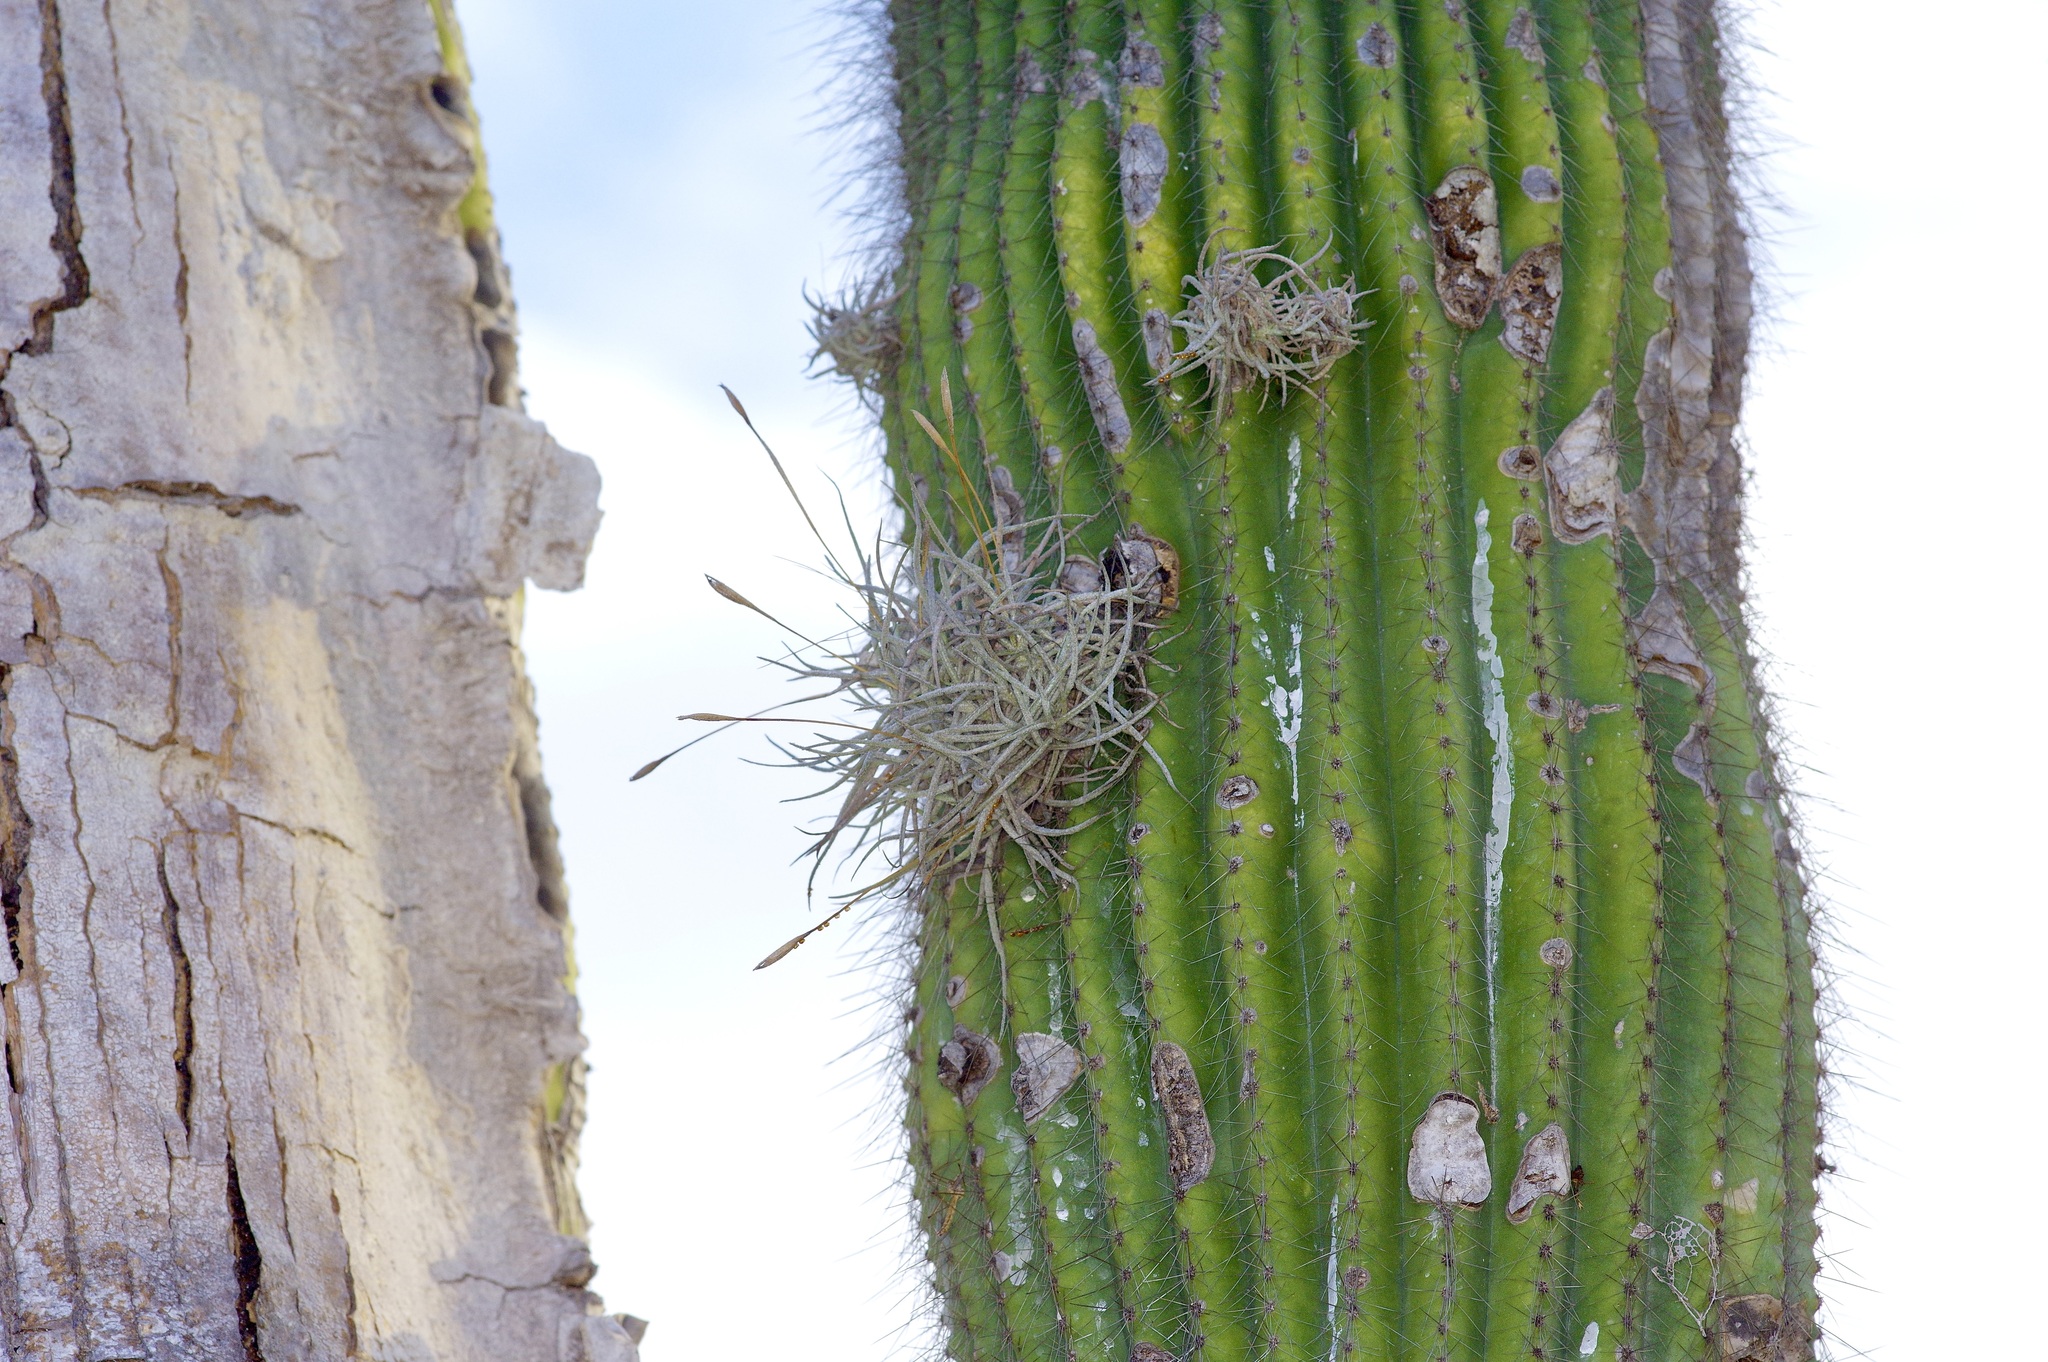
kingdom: Plantae
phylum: Tracheophyta
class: Liliopsida
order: Poales
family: Bromeliaceae
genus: Tillandsia
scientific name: Tillandsia recurvata
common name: Small ballmoss
